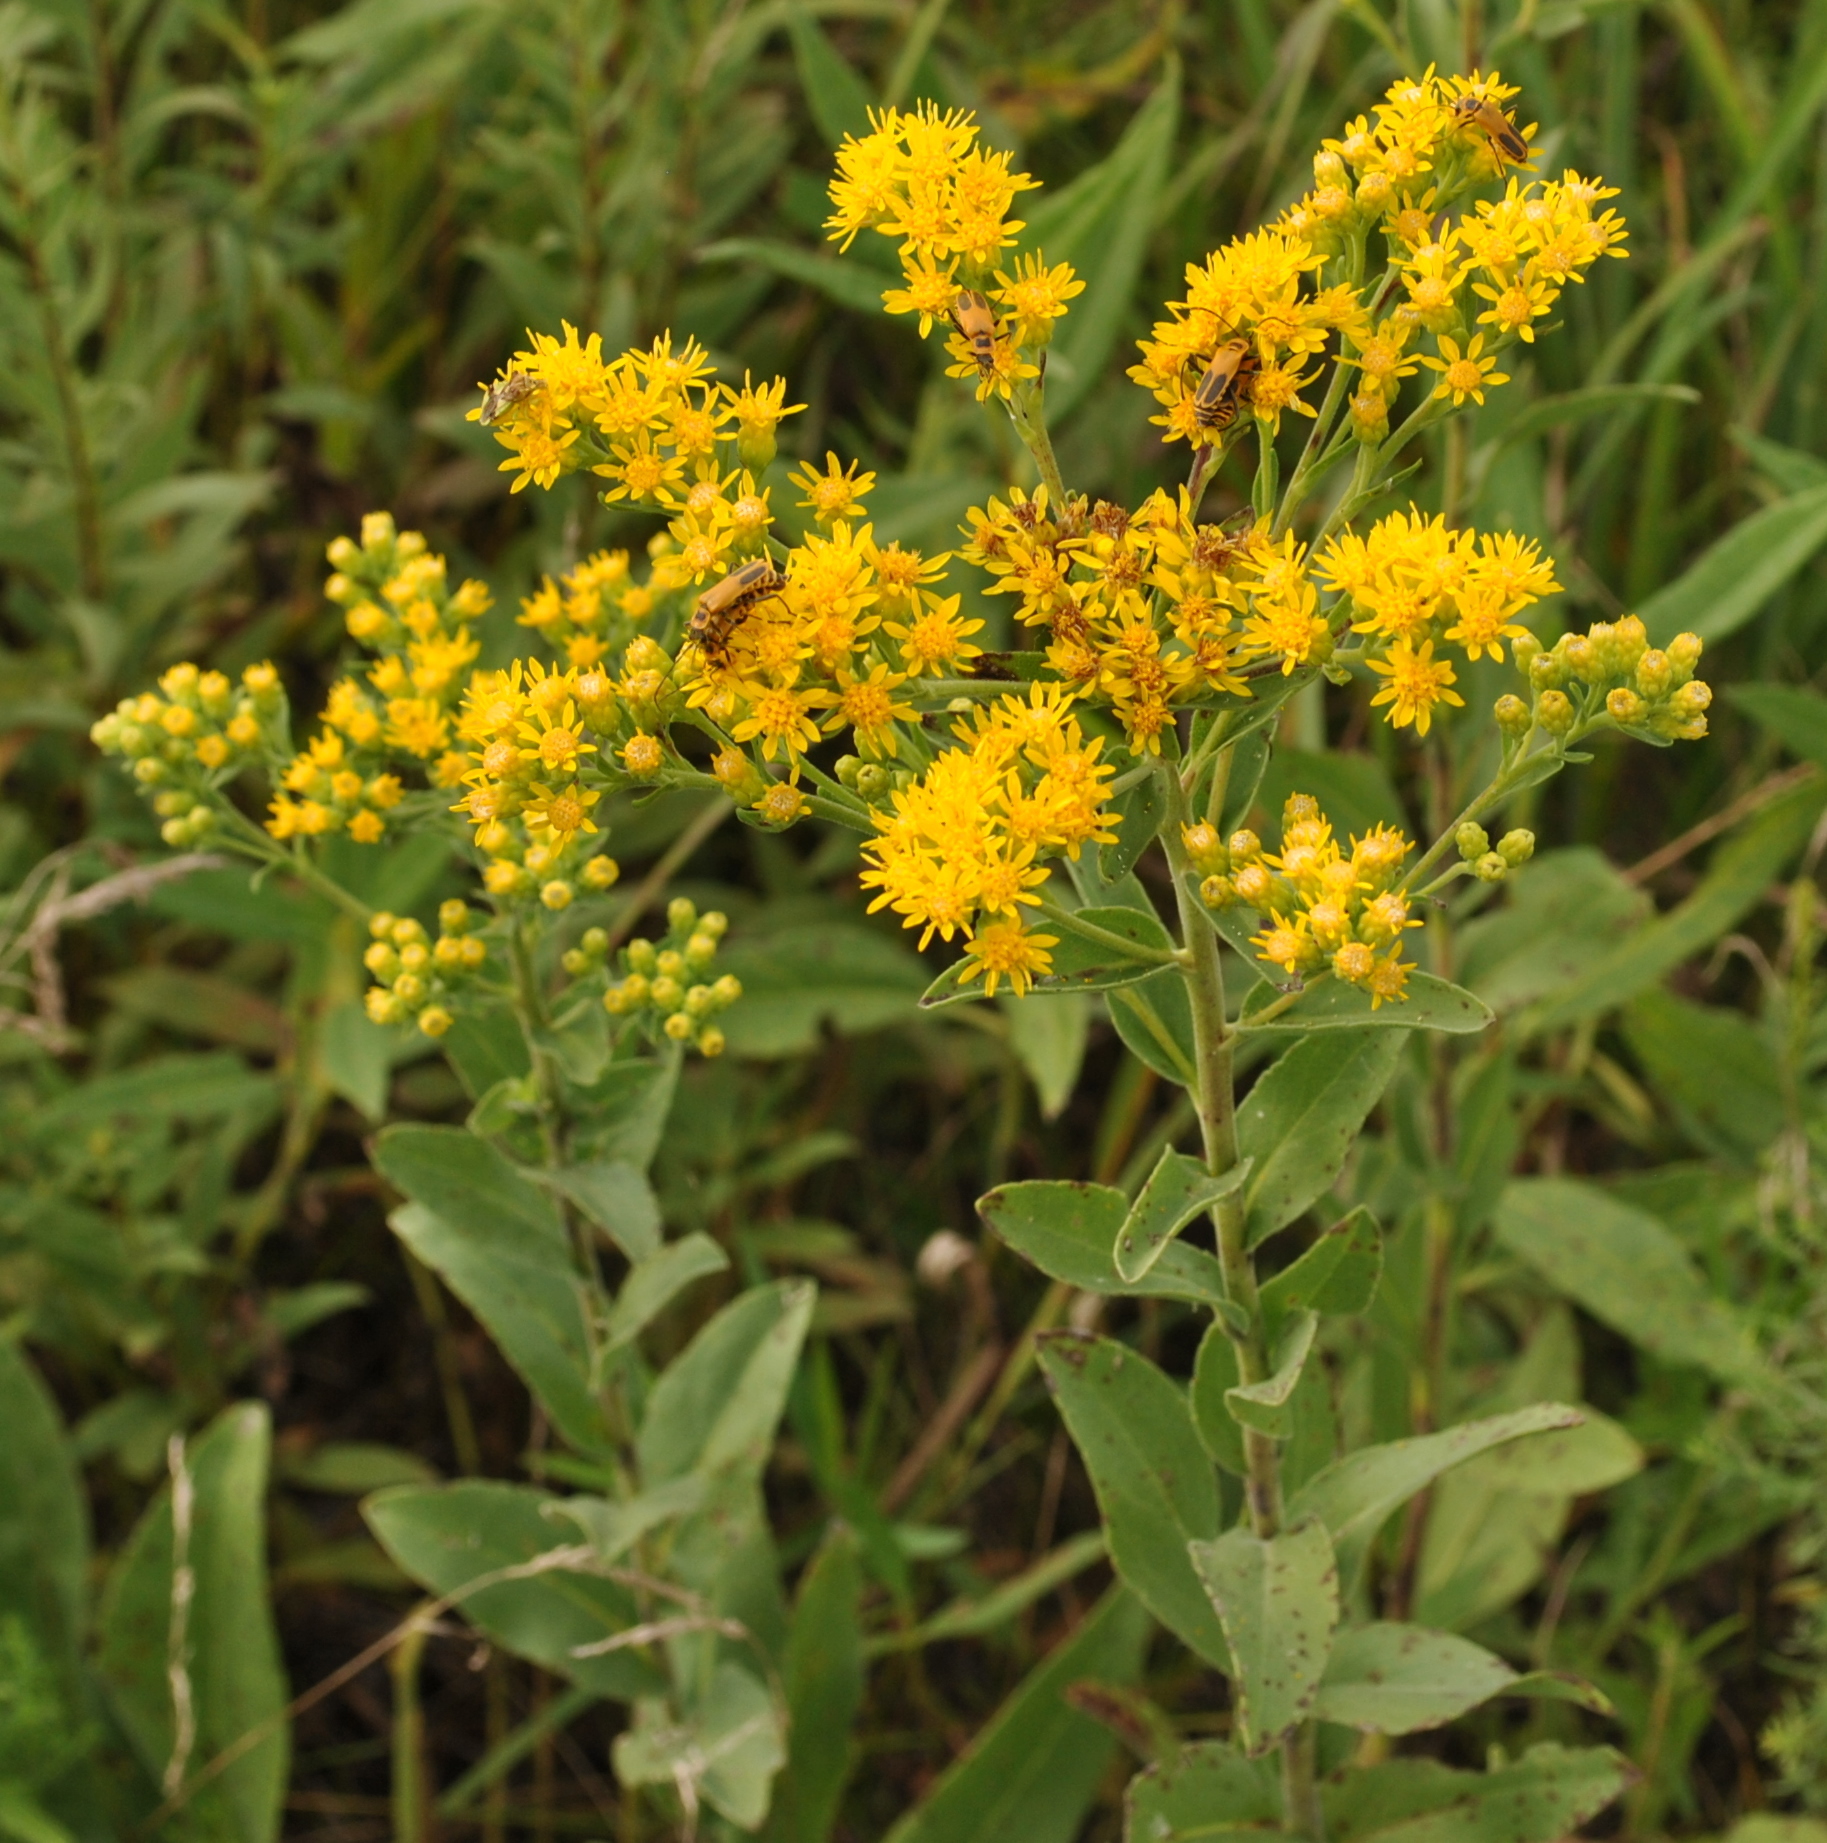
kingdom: Plantae
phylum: Tracheophyta
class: Magnoliopsida
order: Asterales
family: Asteraceae
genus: Solidago
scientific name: Solidago rigida
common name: Rigid goldenrod
